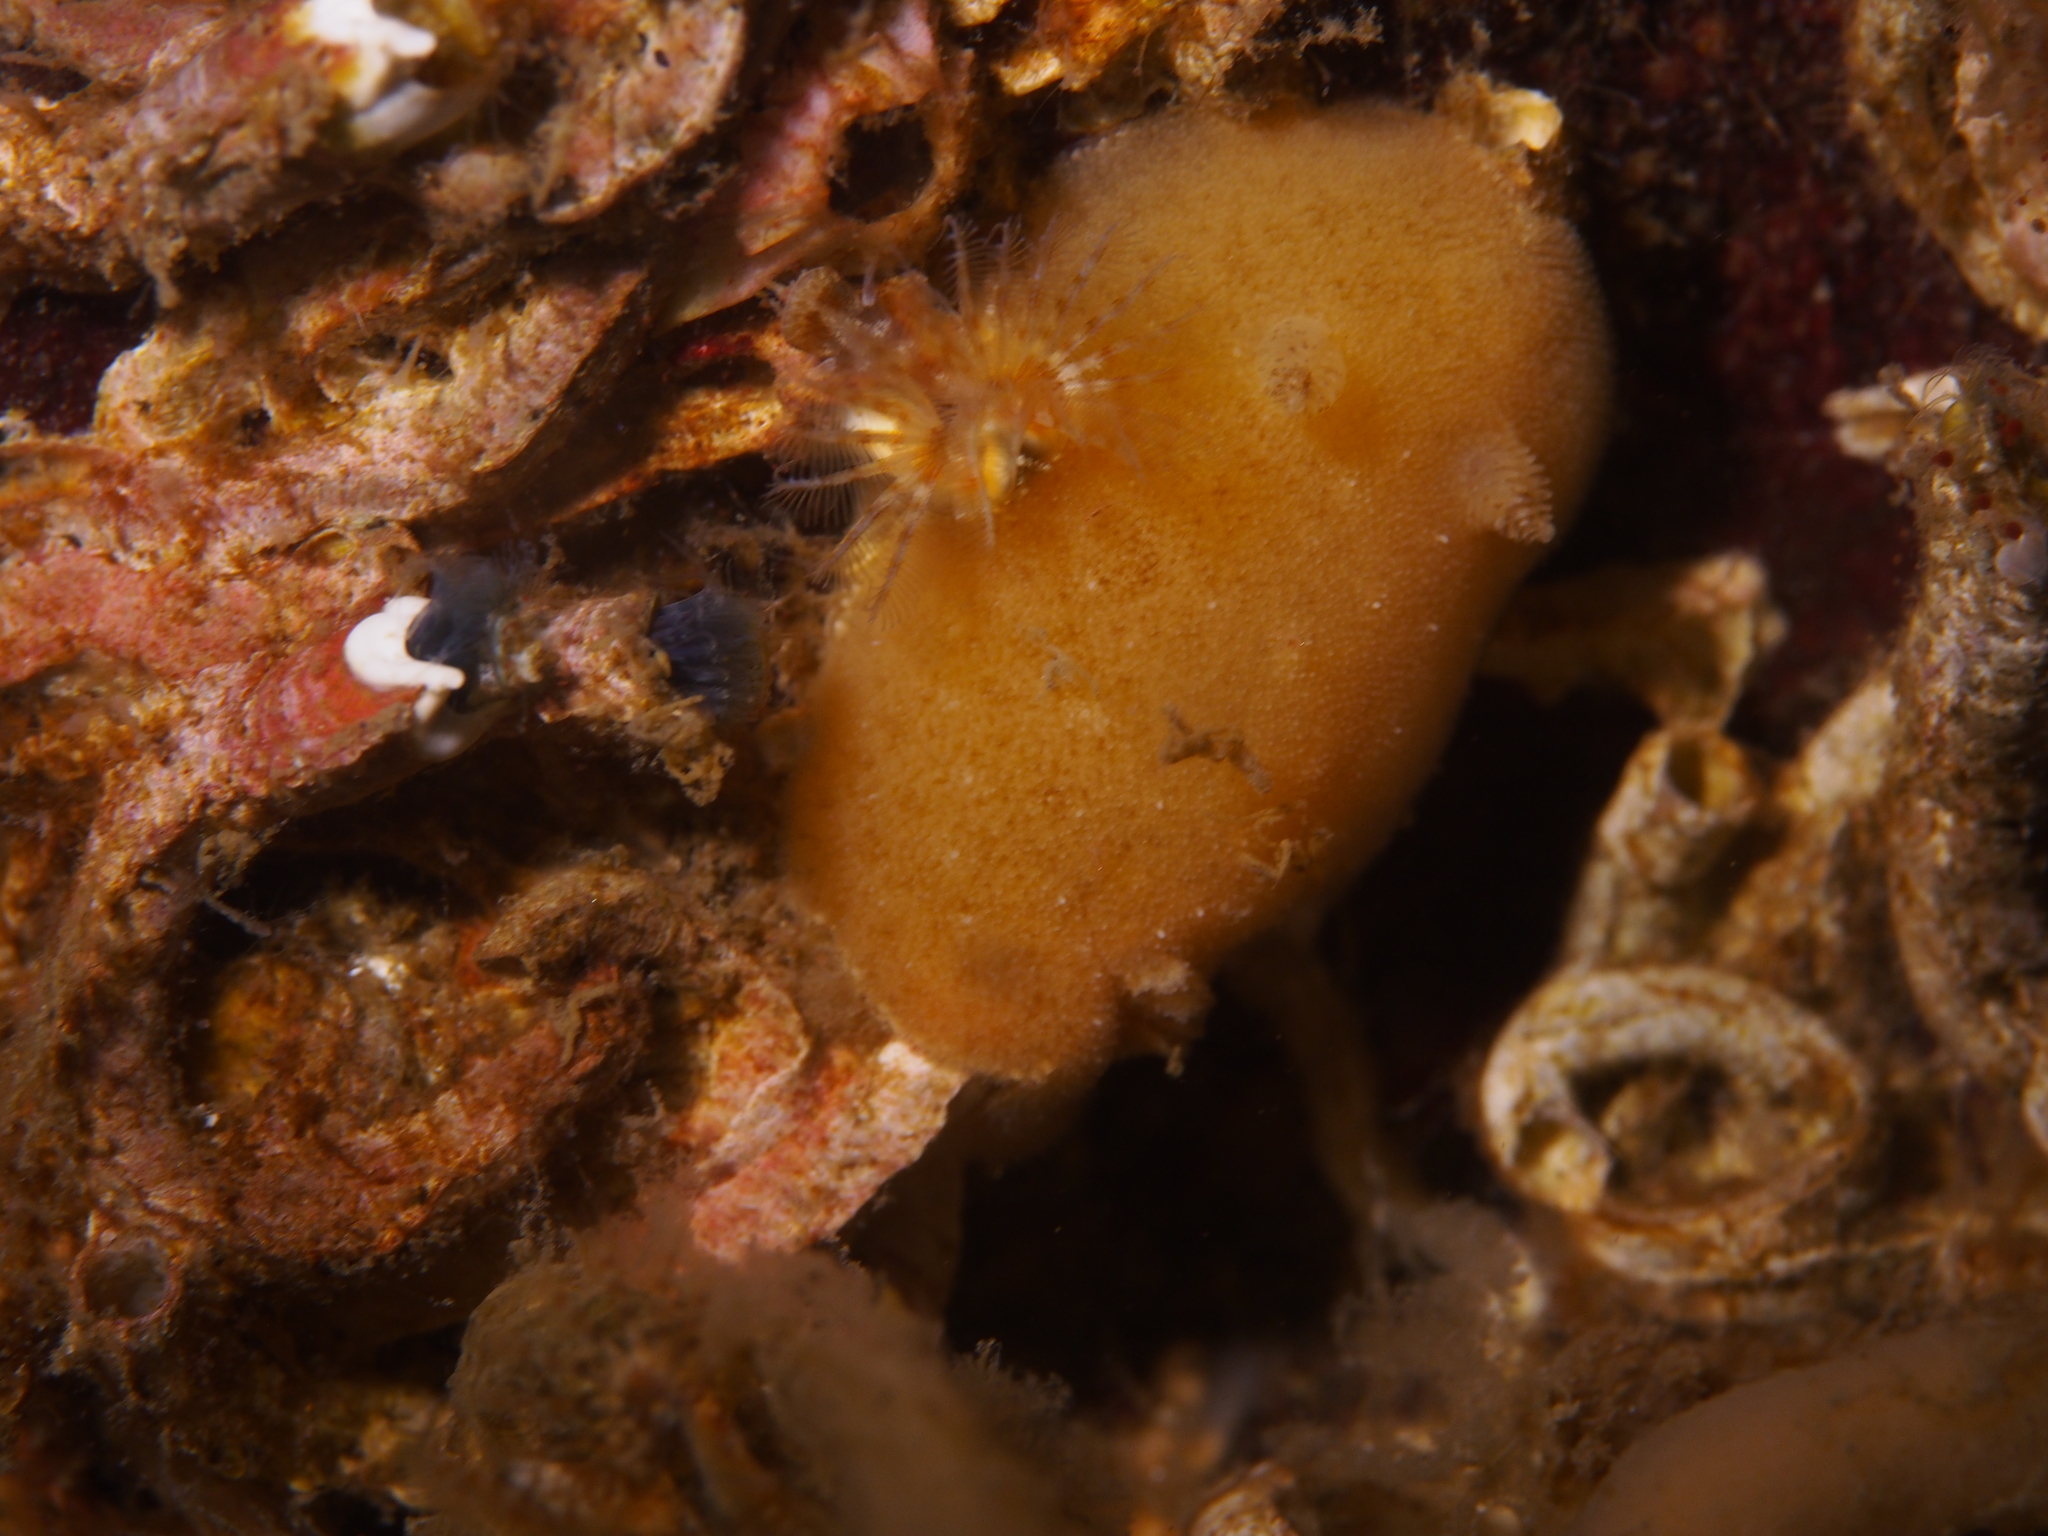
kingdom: Animalia
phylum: Mollusca
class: Gastropoda
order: Nudibranchia
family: Discodorididae
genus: Jorunna
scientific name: Jorunna tomentosa
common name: Grey sea slug
